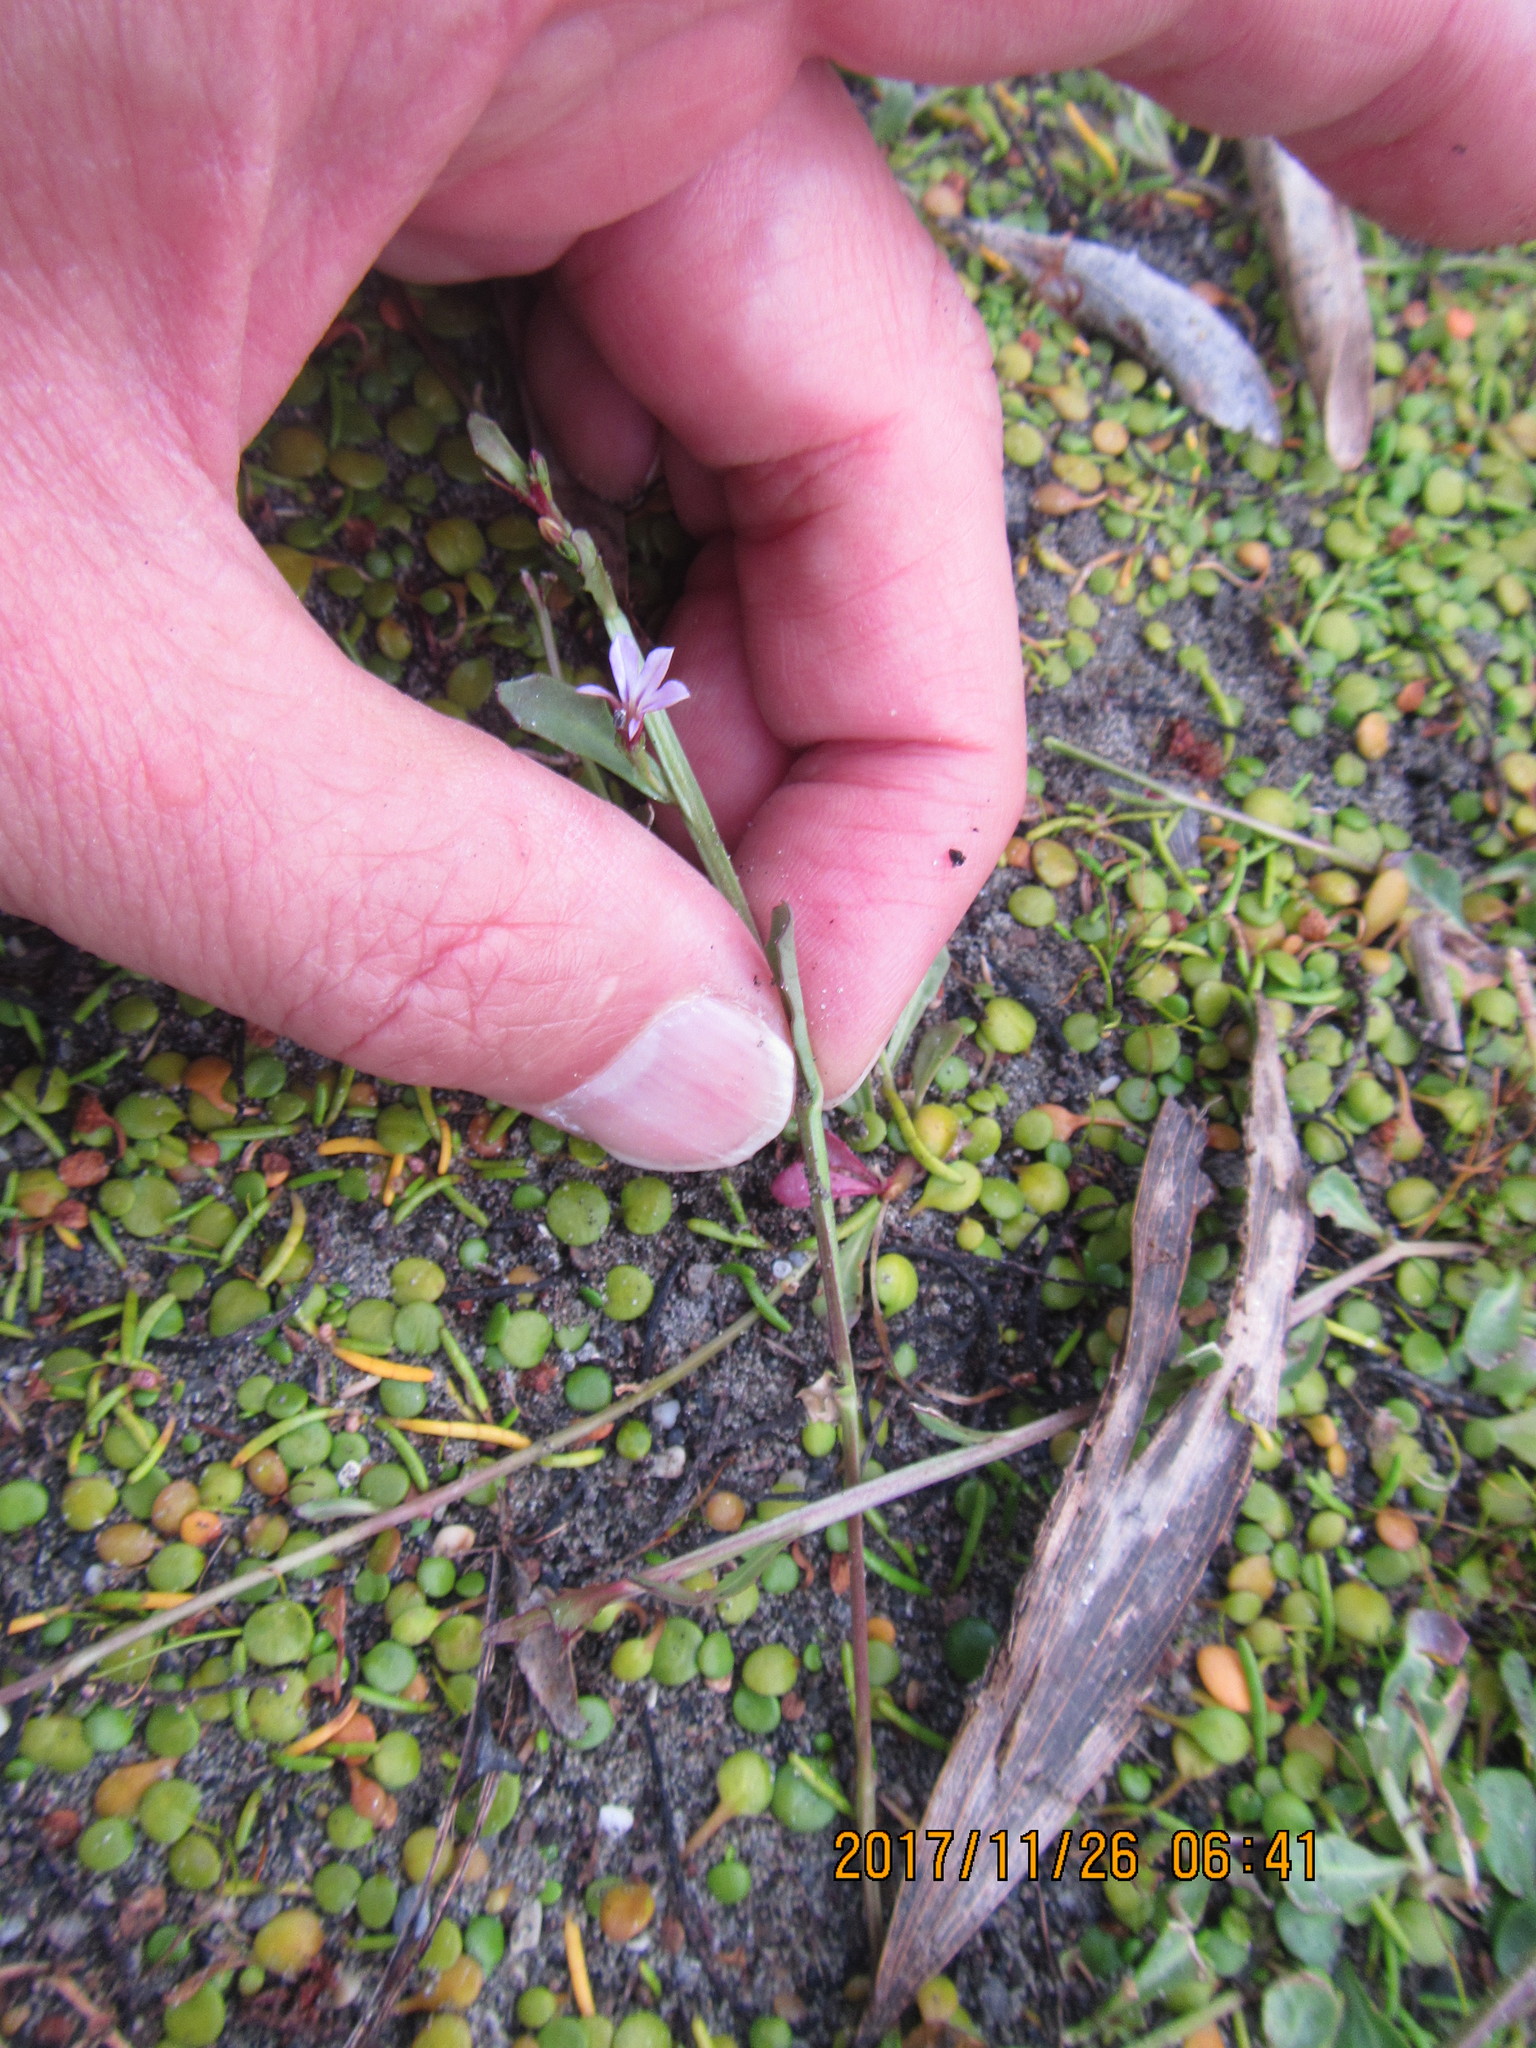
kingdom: Plantae
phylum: Tracheophyta
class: Magnoliopsida
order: Asterales
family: Goodeniaceae
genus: Goodenia
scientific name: Goodenia heenanii
